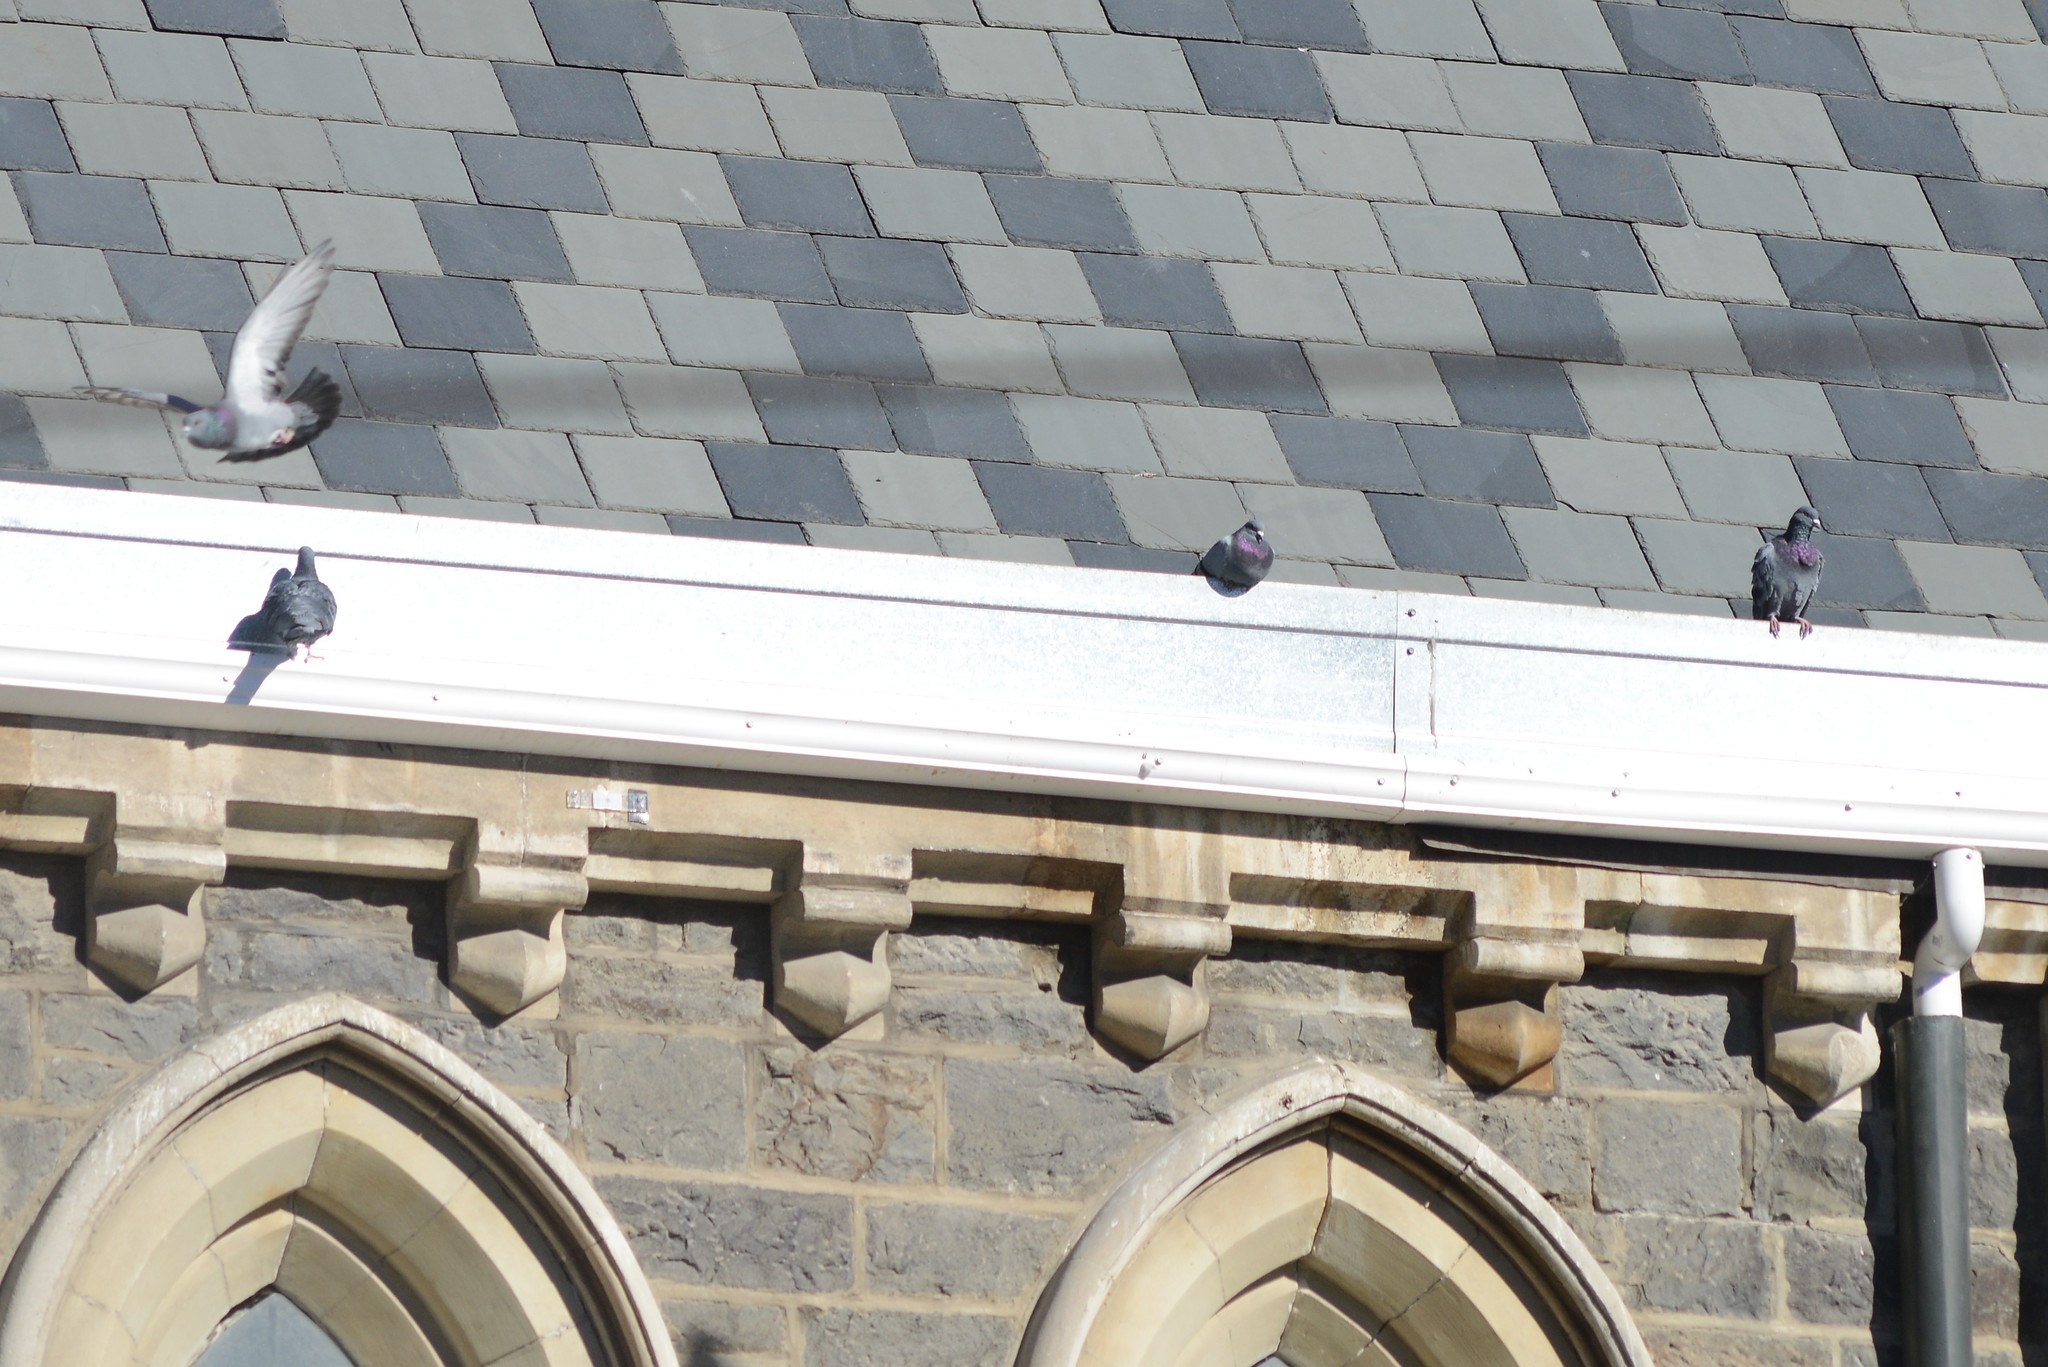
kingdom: Animalia
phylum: Chordata
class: Aves
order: Columbiformes
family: Columbidae
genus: Columba
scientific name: Columba livia
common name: Rock pigeon
